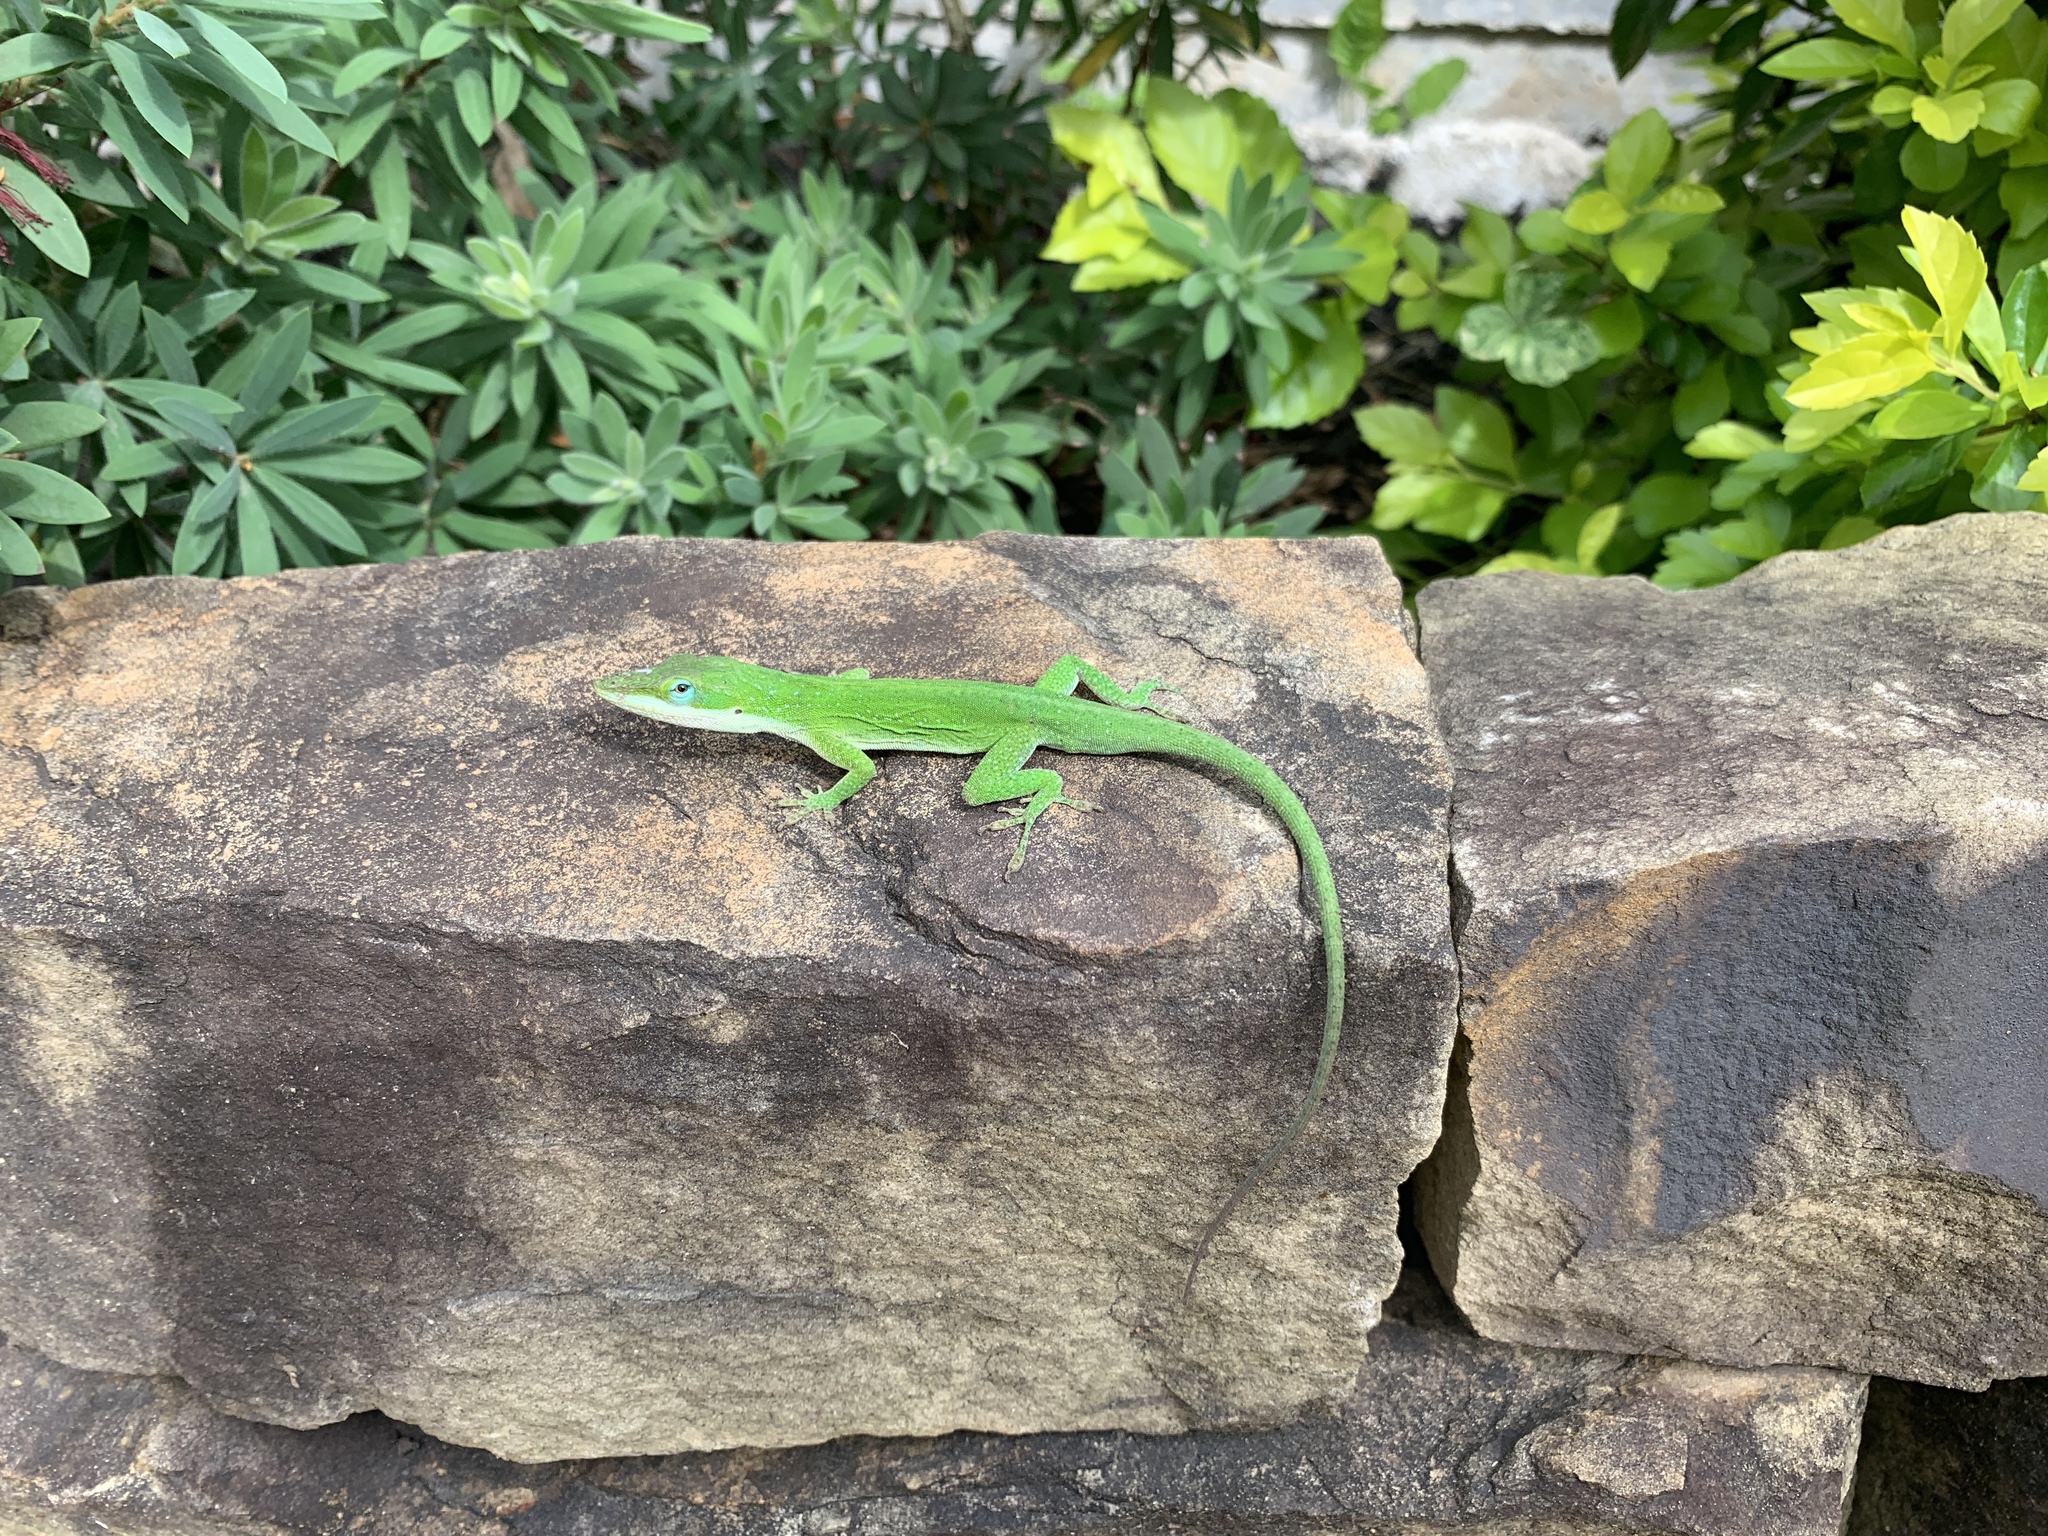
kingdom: Animalia
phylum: Chordata
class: Squamata
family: Dactyloidae
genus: Anolis
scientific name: Anolis carolinensis
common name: Green anole
